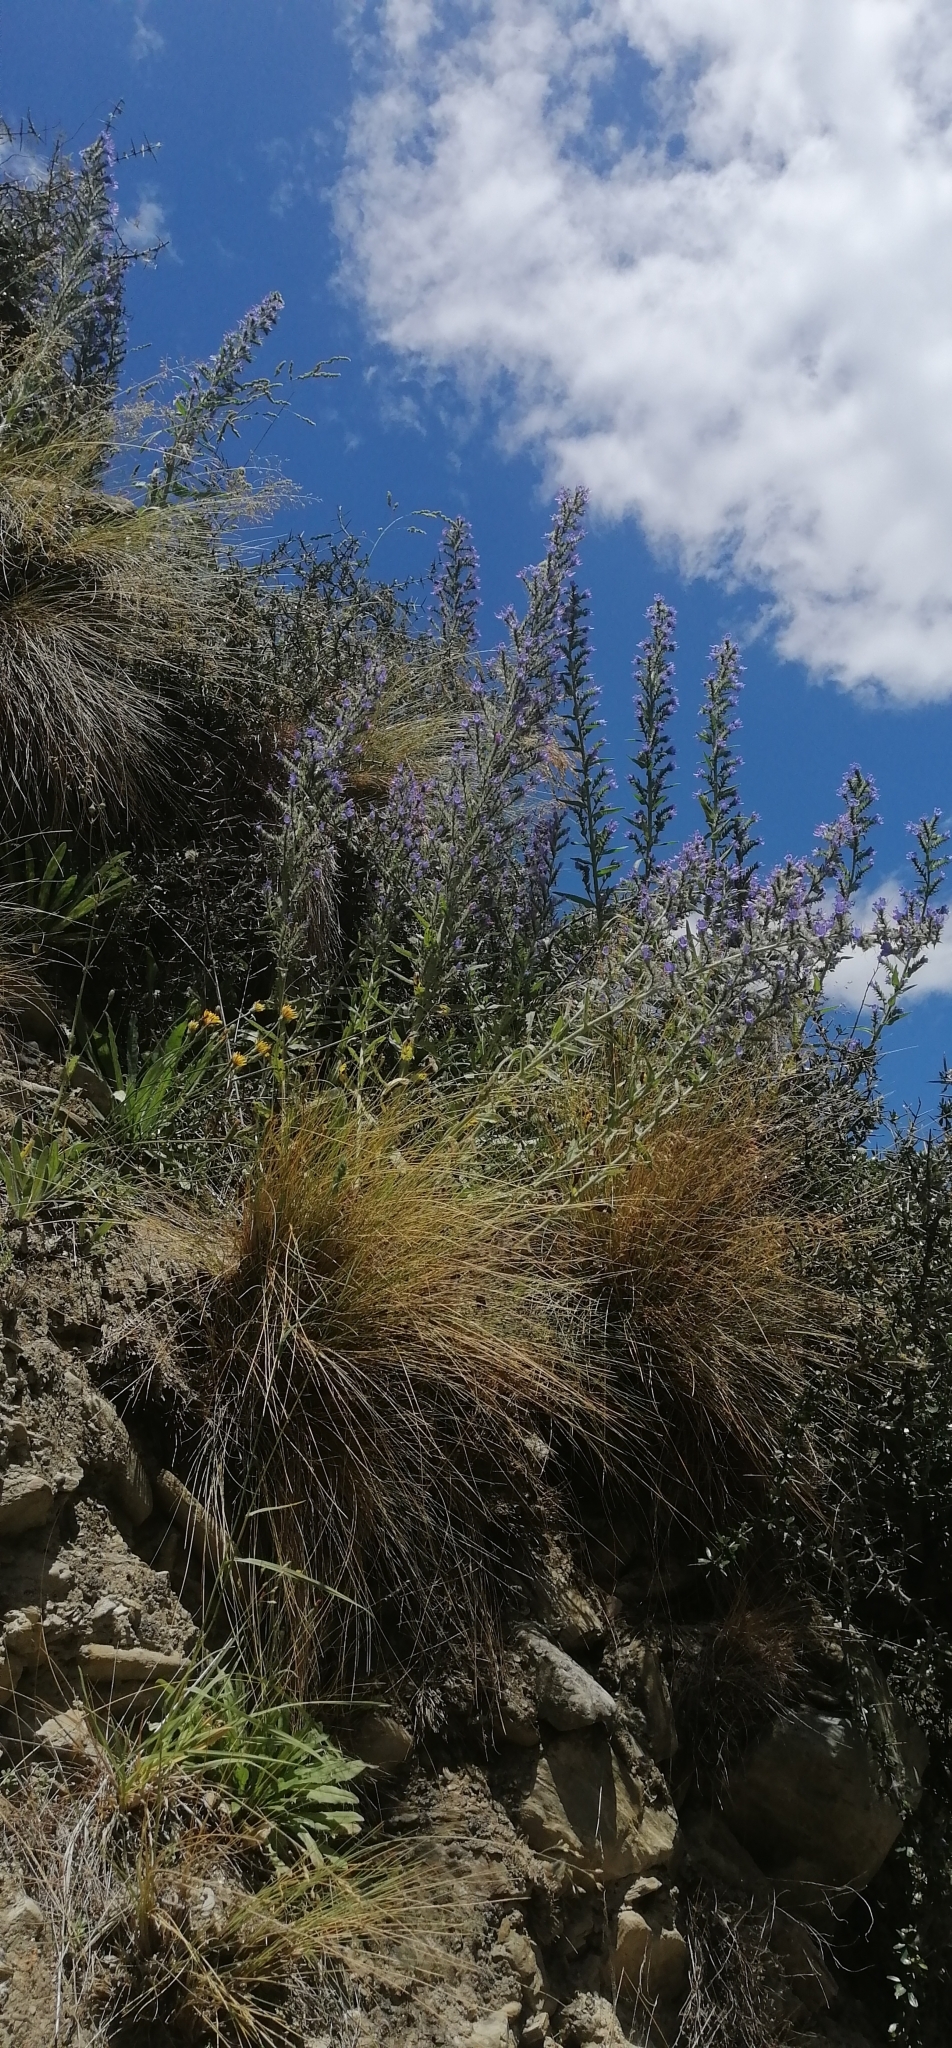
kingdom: Plantae
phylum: Tracheophyta
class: Magnoliopsida
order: Boraginales
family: Boraginaceae
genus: Echium
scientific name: Echium vulgare
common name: Common viper's bugloss
